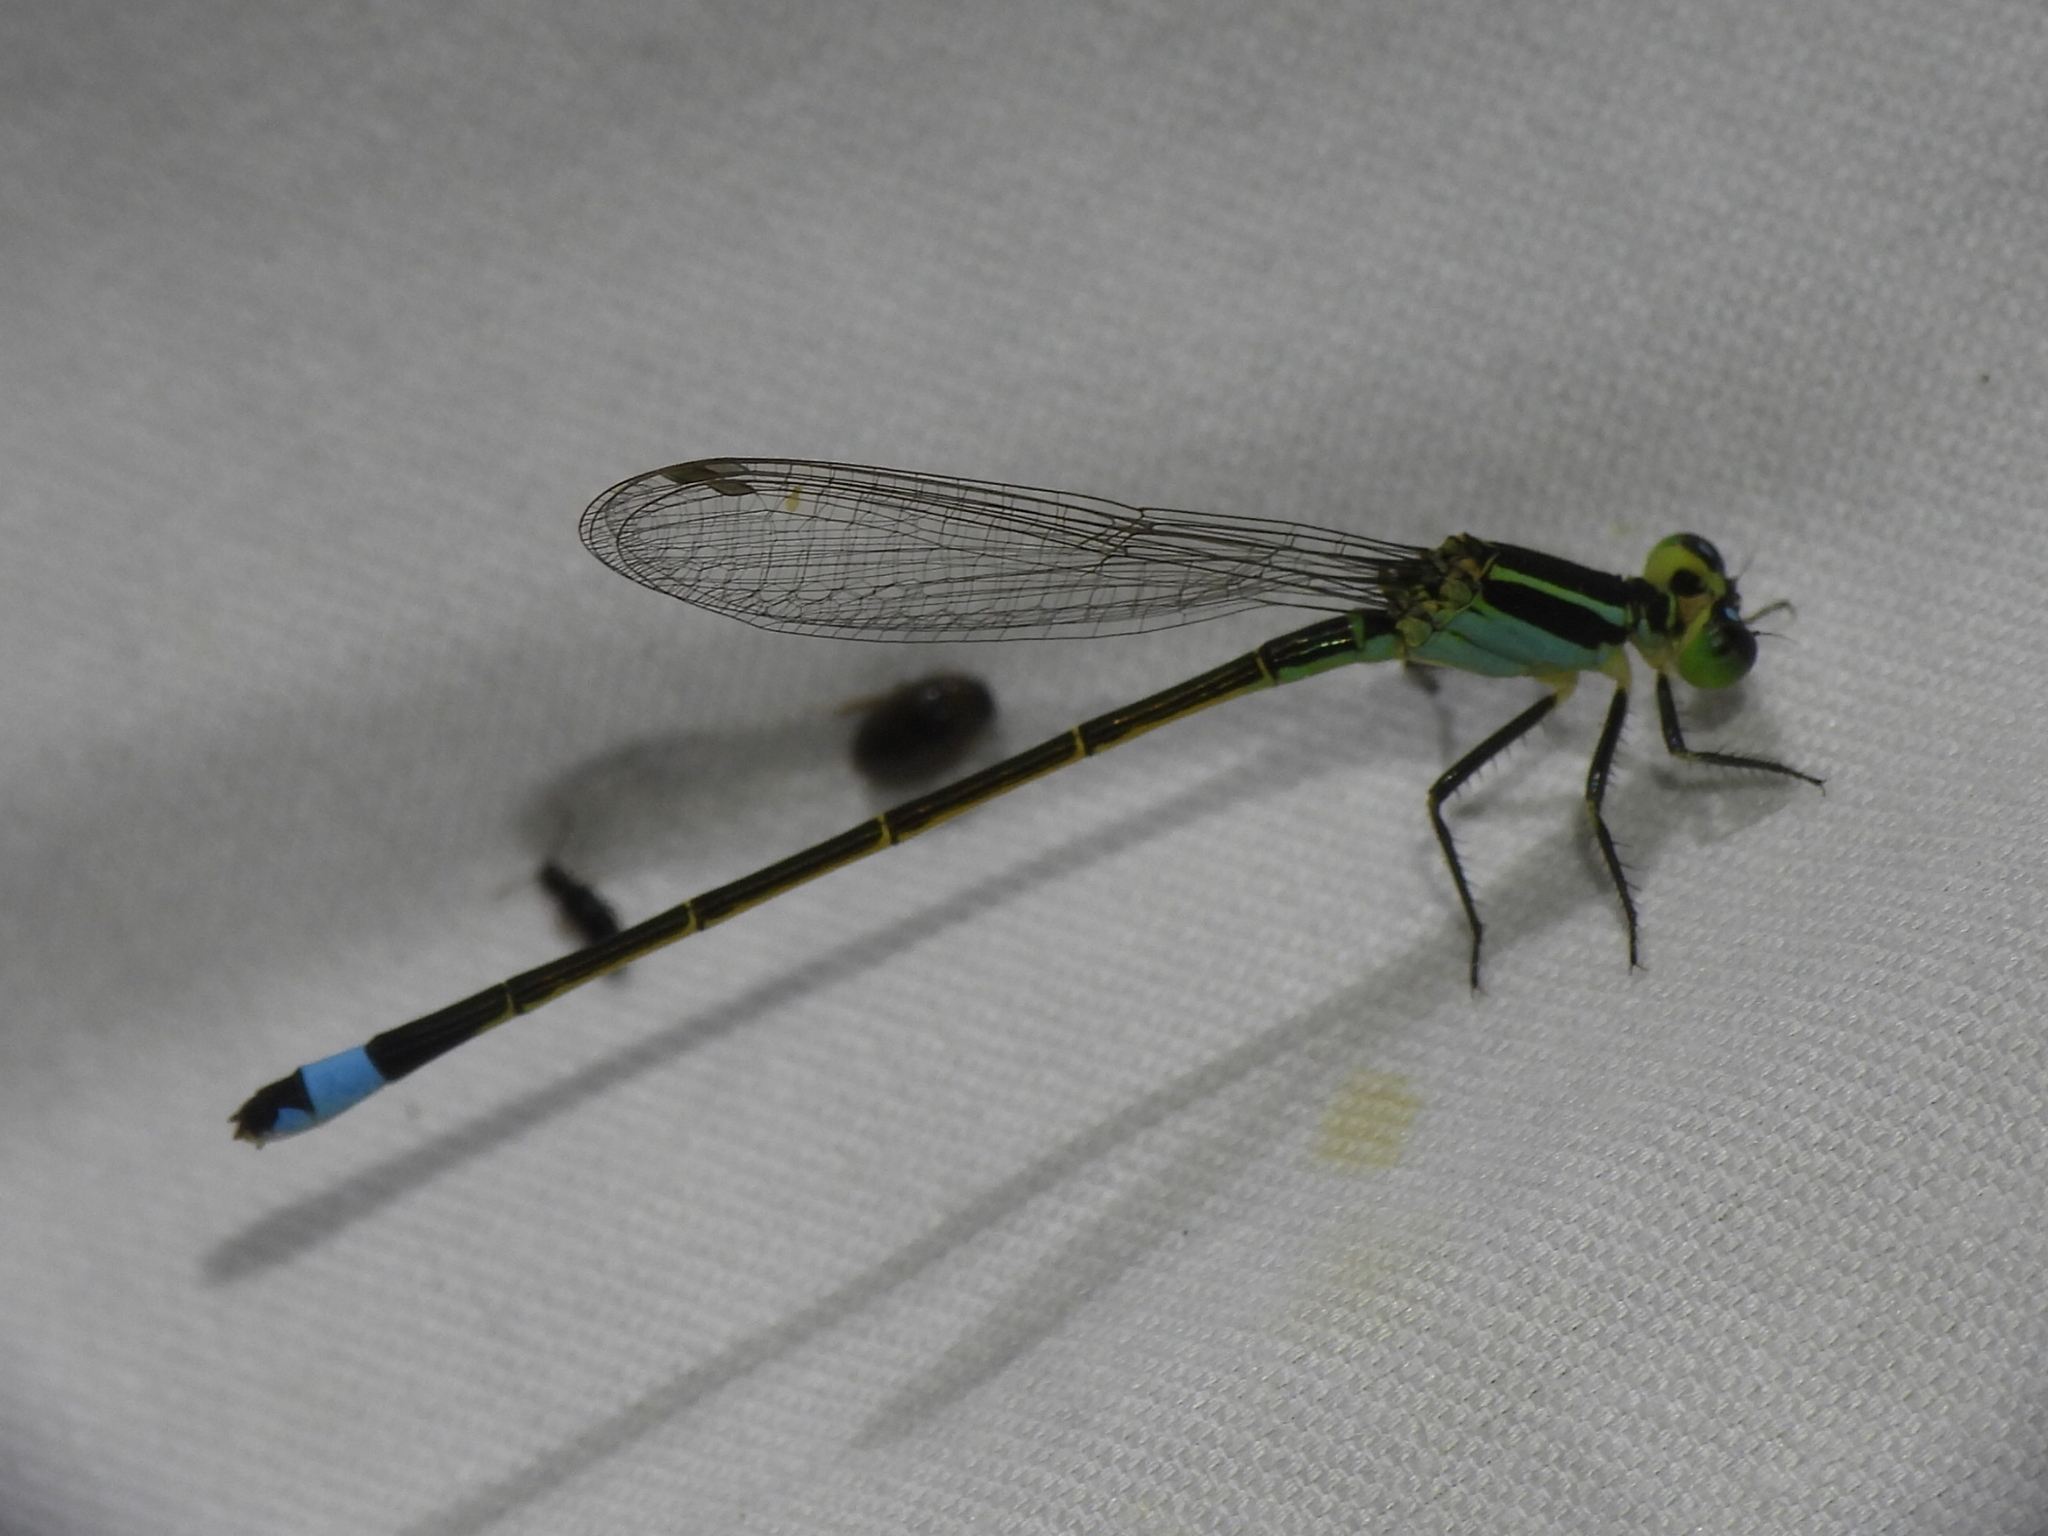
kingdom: Animalia
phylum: Arthropoda
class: Insecta
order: Odonata
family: Coenagrionidae
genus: Ischnura
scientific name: Ischnura ramburii
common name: Rambur's forktail
